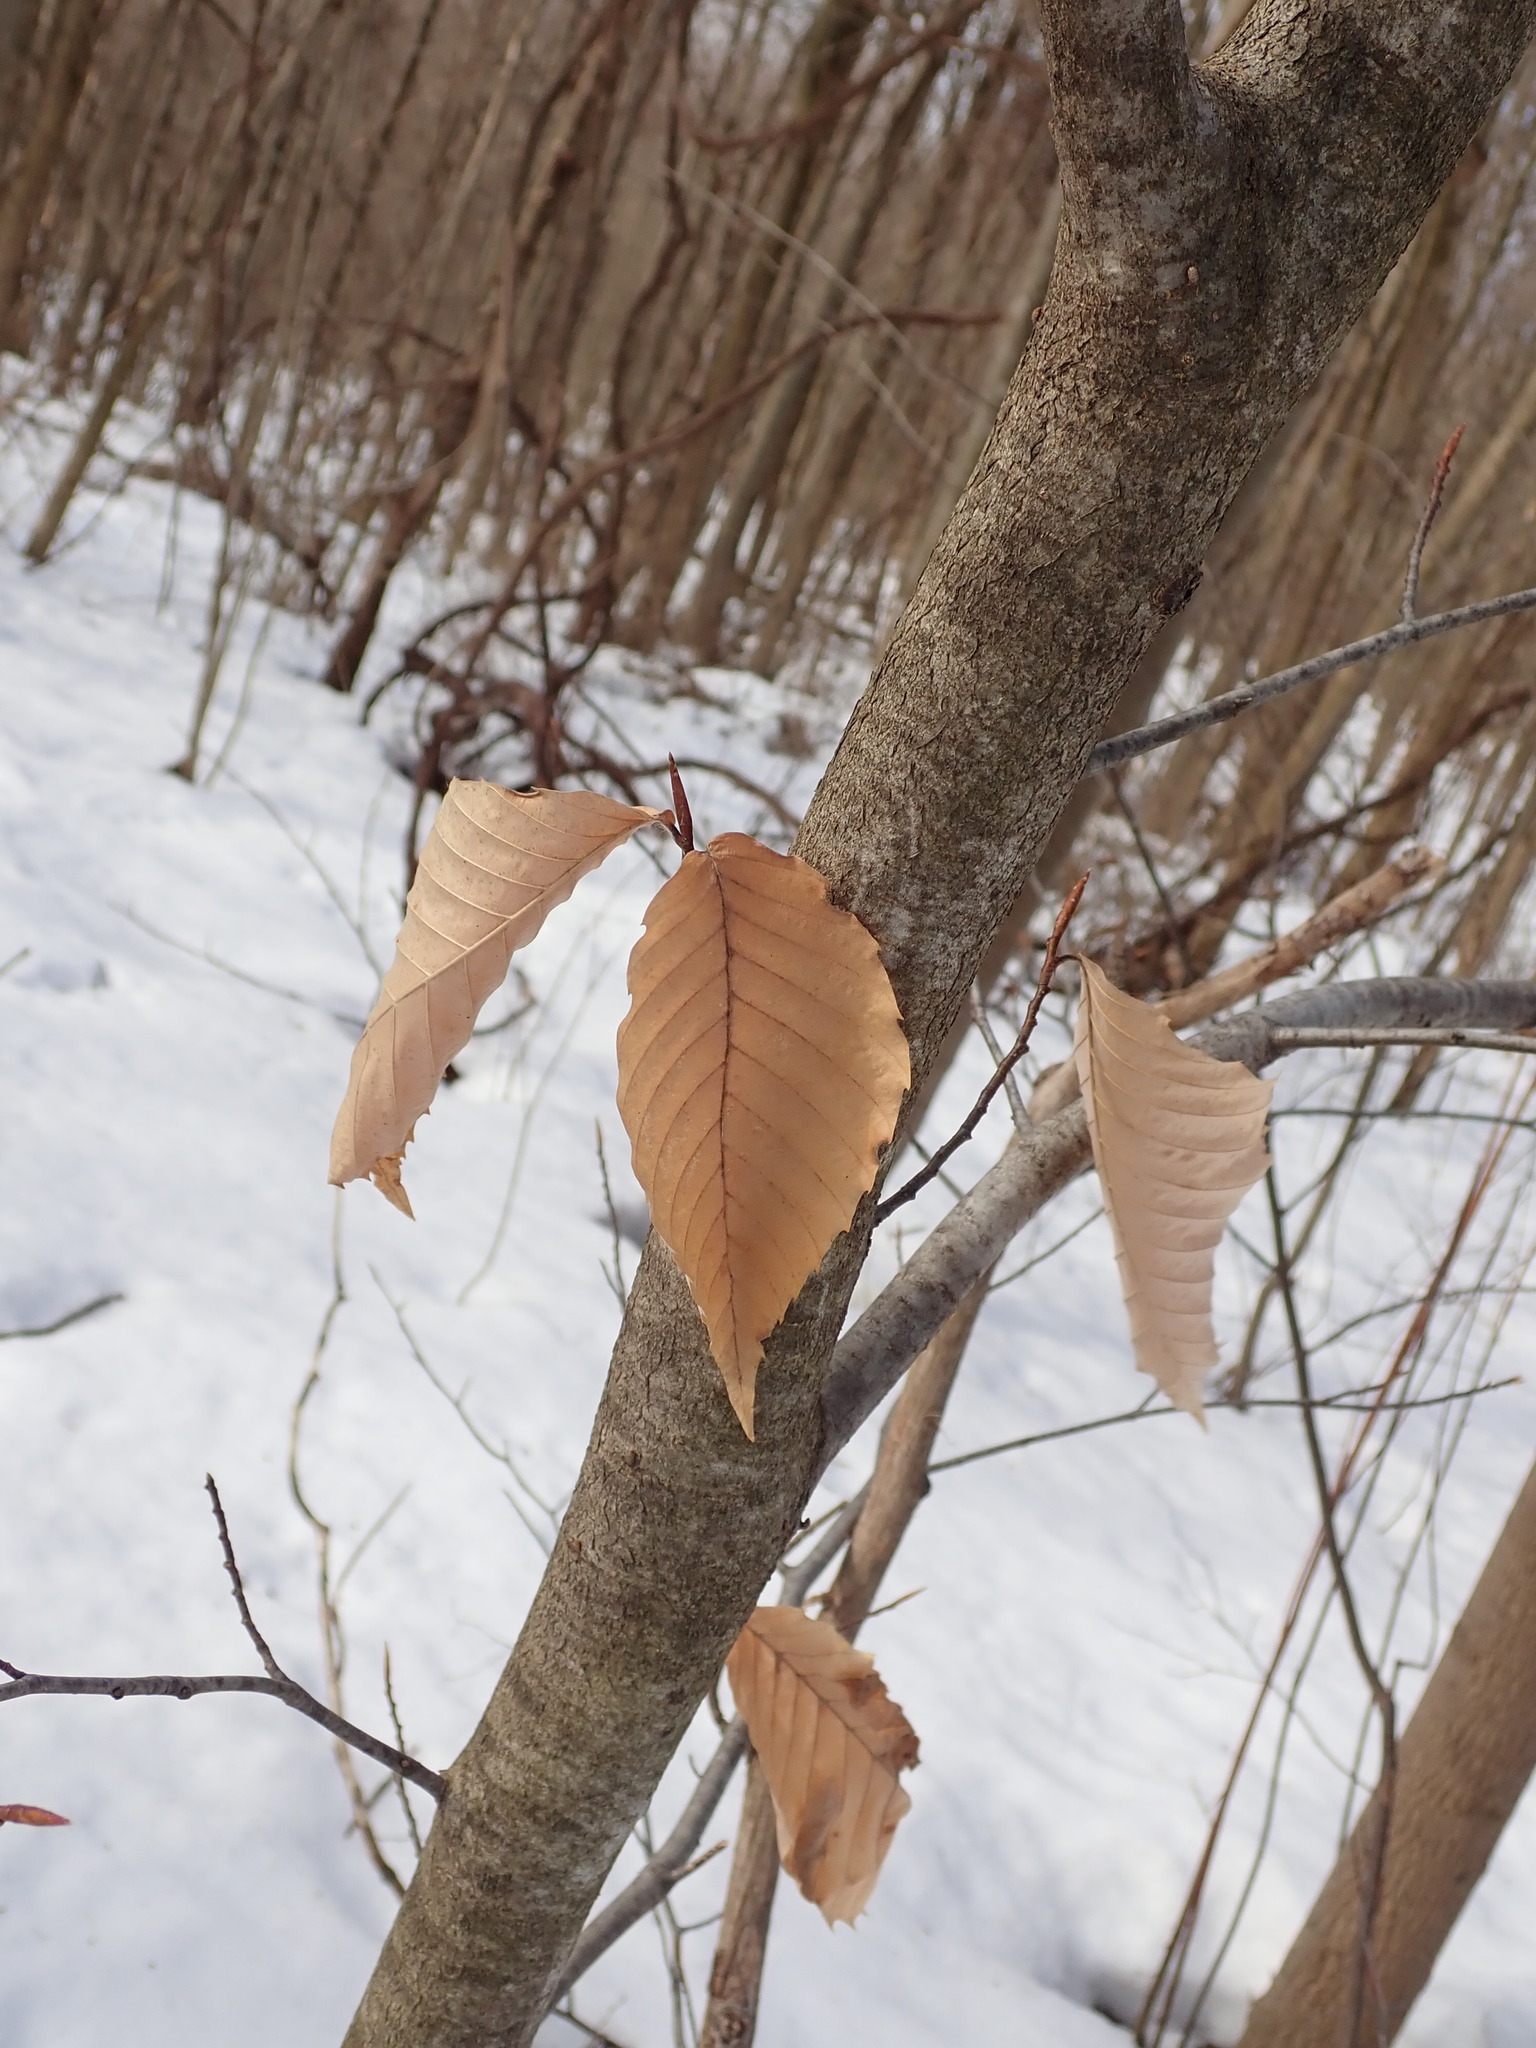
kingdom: Plantae
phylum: Tracheophyta
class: Magnoliopsida
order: Fagales
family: Fagaceae
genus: Fagus
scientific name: Fagus grandifolia
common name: American beech
